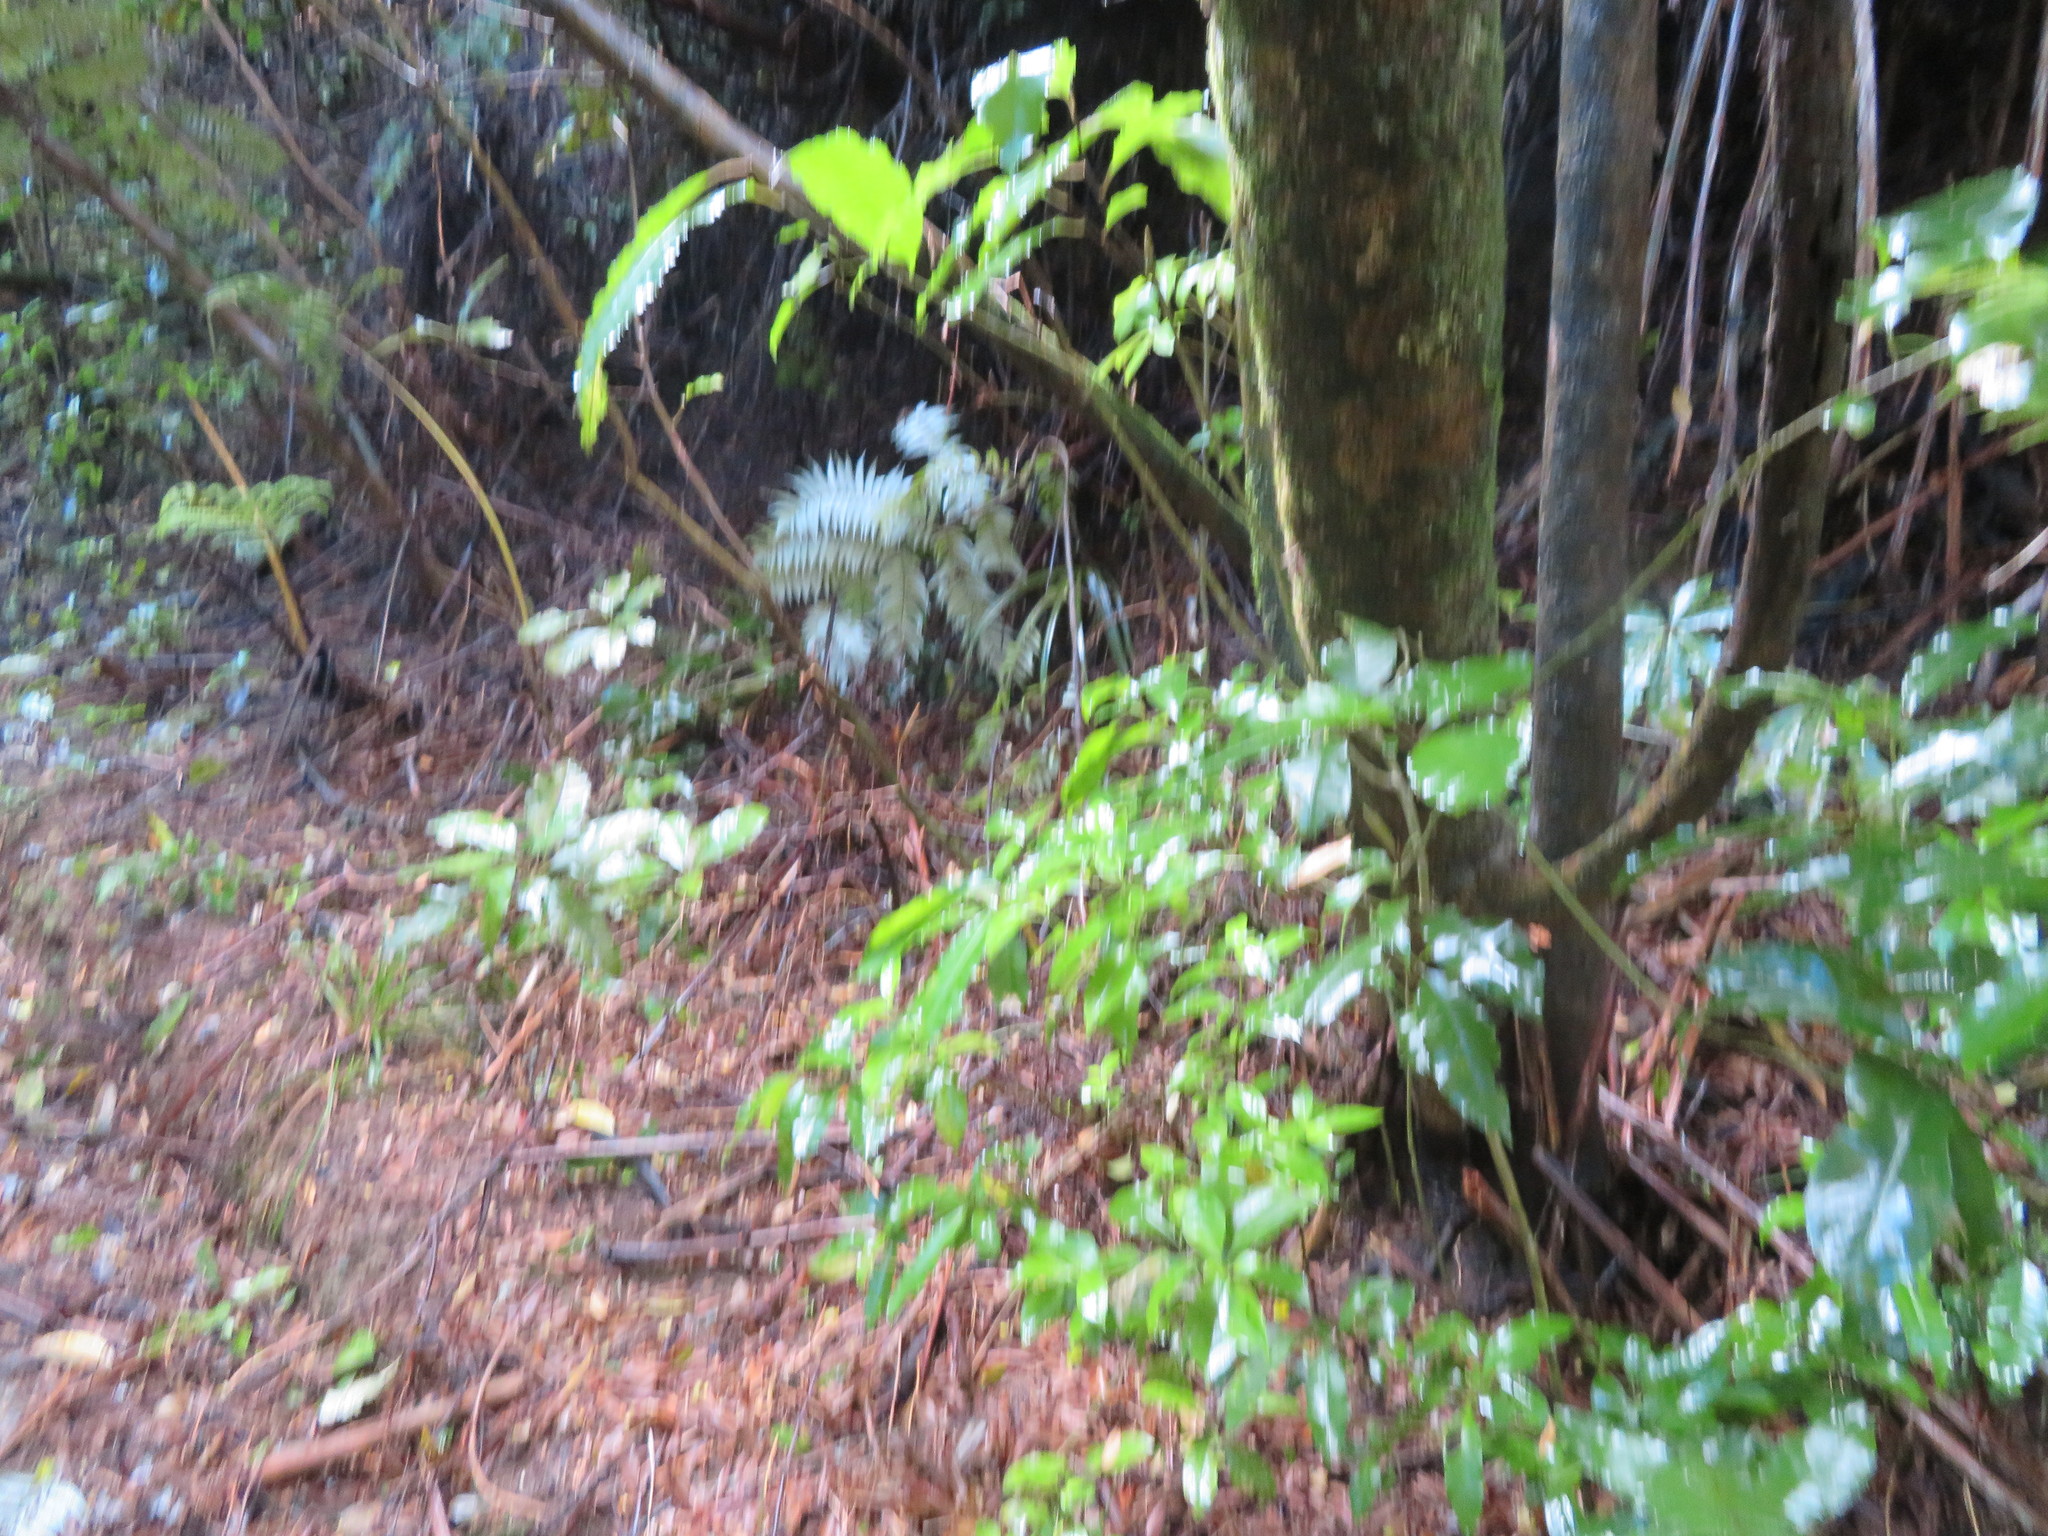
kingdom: Plantae
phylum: Tracheophyta
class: Magnoliopsida
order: Malpighiales
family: Violaceae
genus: Melicytus
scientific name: Melicytus ramiflorus
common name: Mahoe
